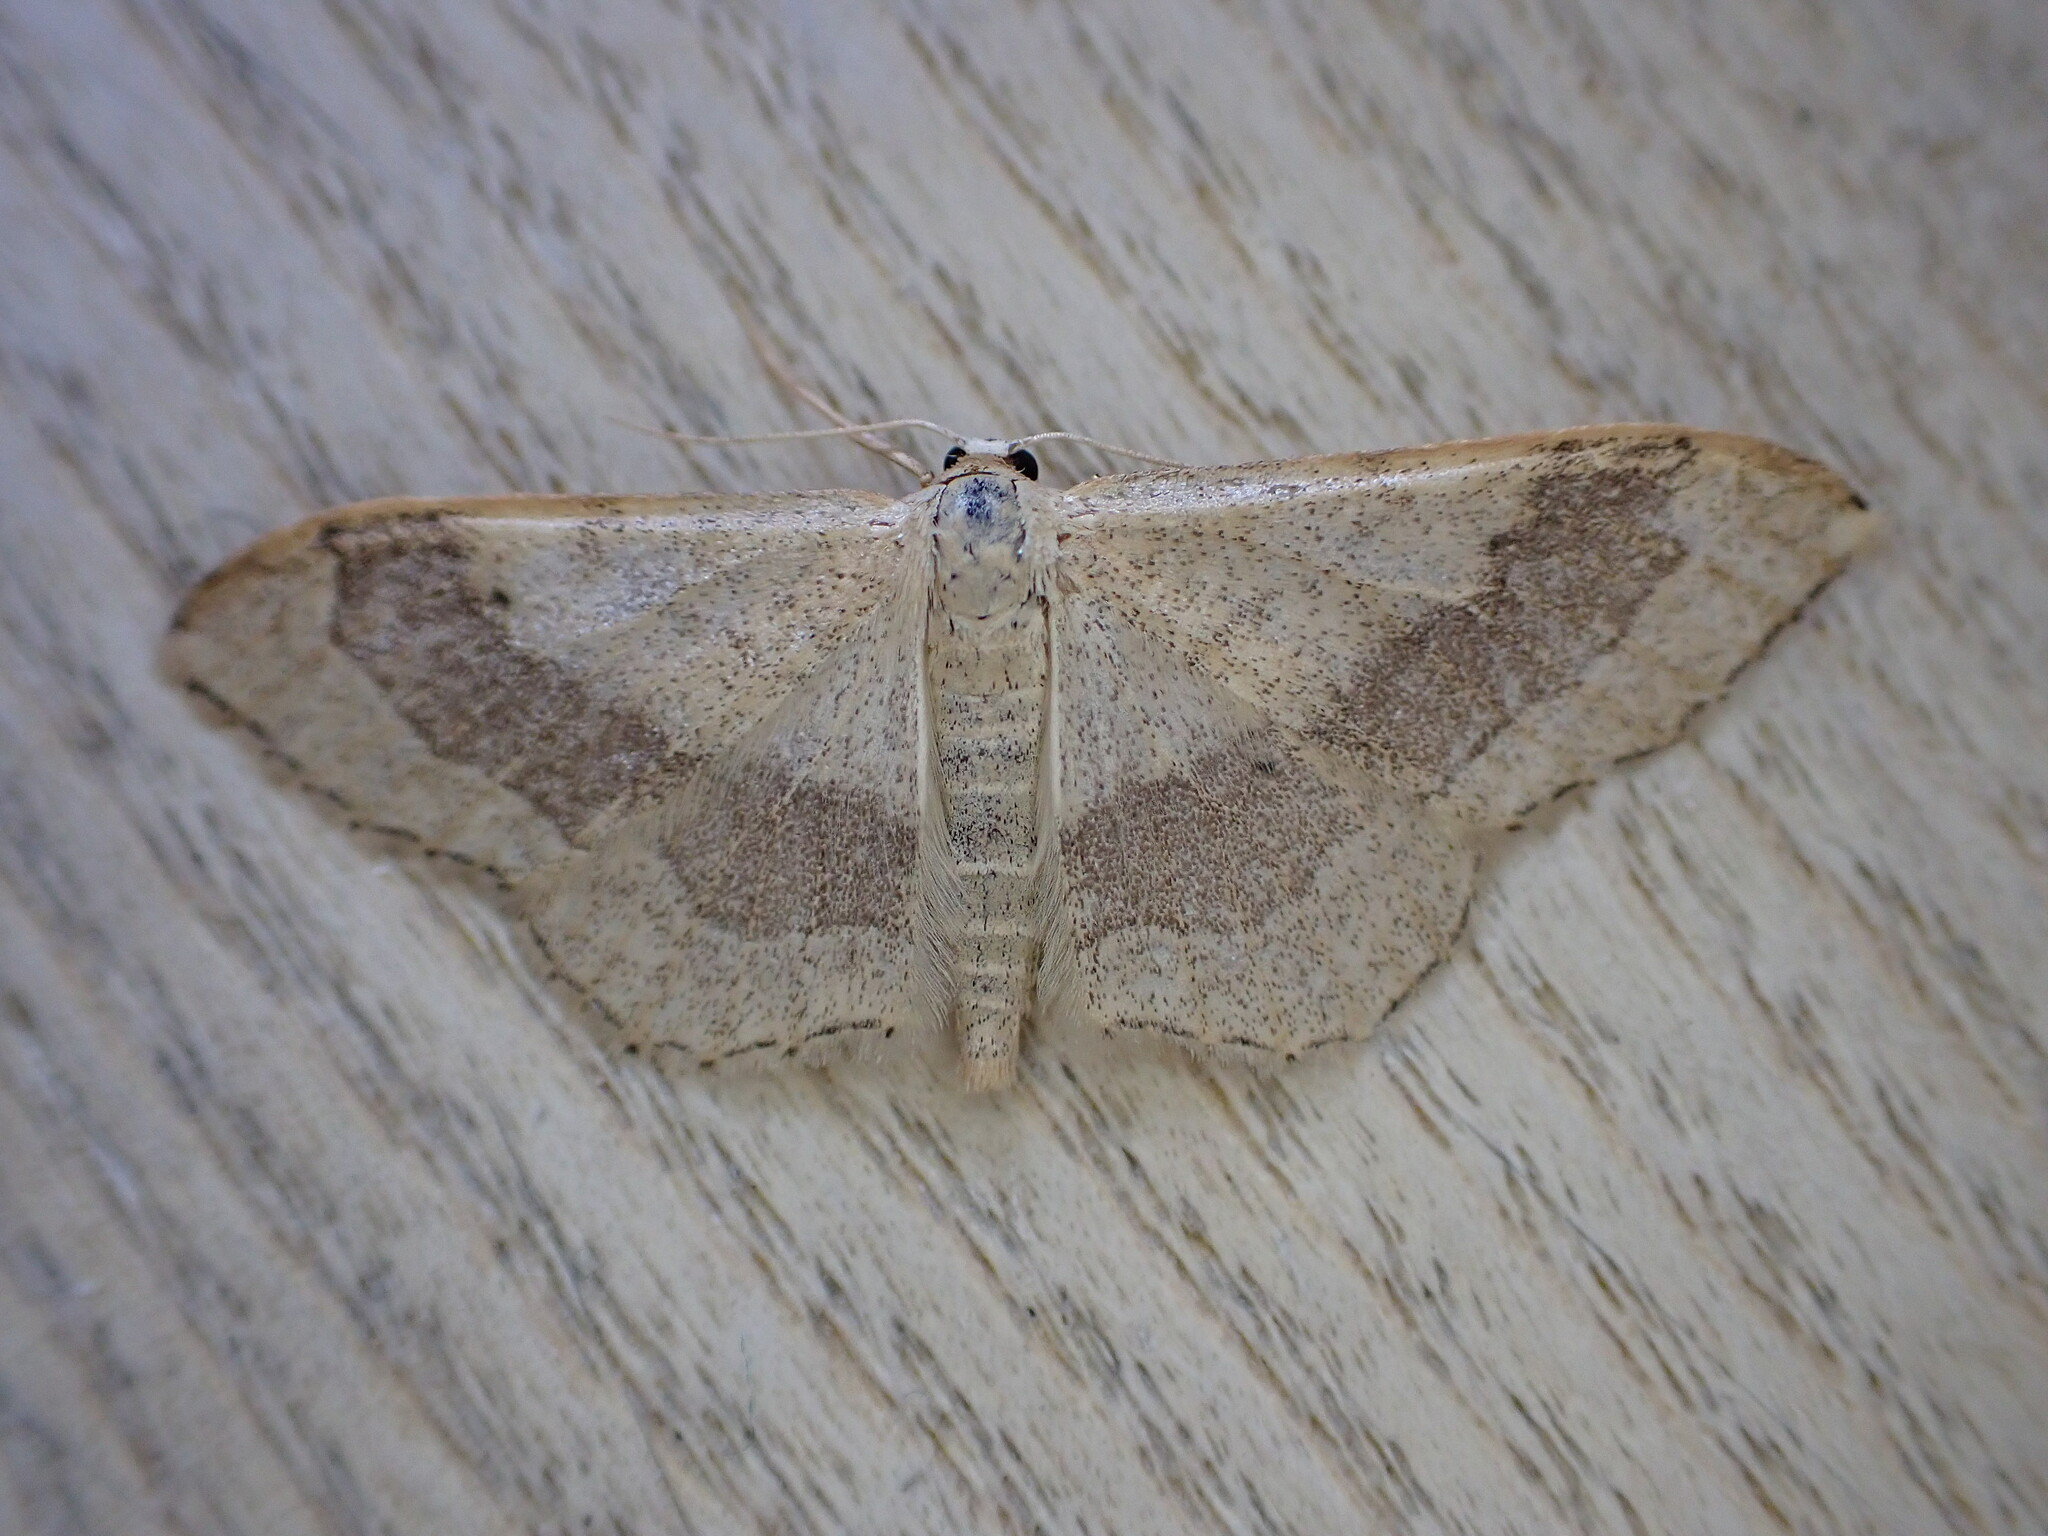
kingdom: Animalia
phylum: Arthropoda
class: Insecta
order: Lepidoptera
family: Geometridae
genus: Idaea
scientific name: Idaea aversata
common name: Riband wave
